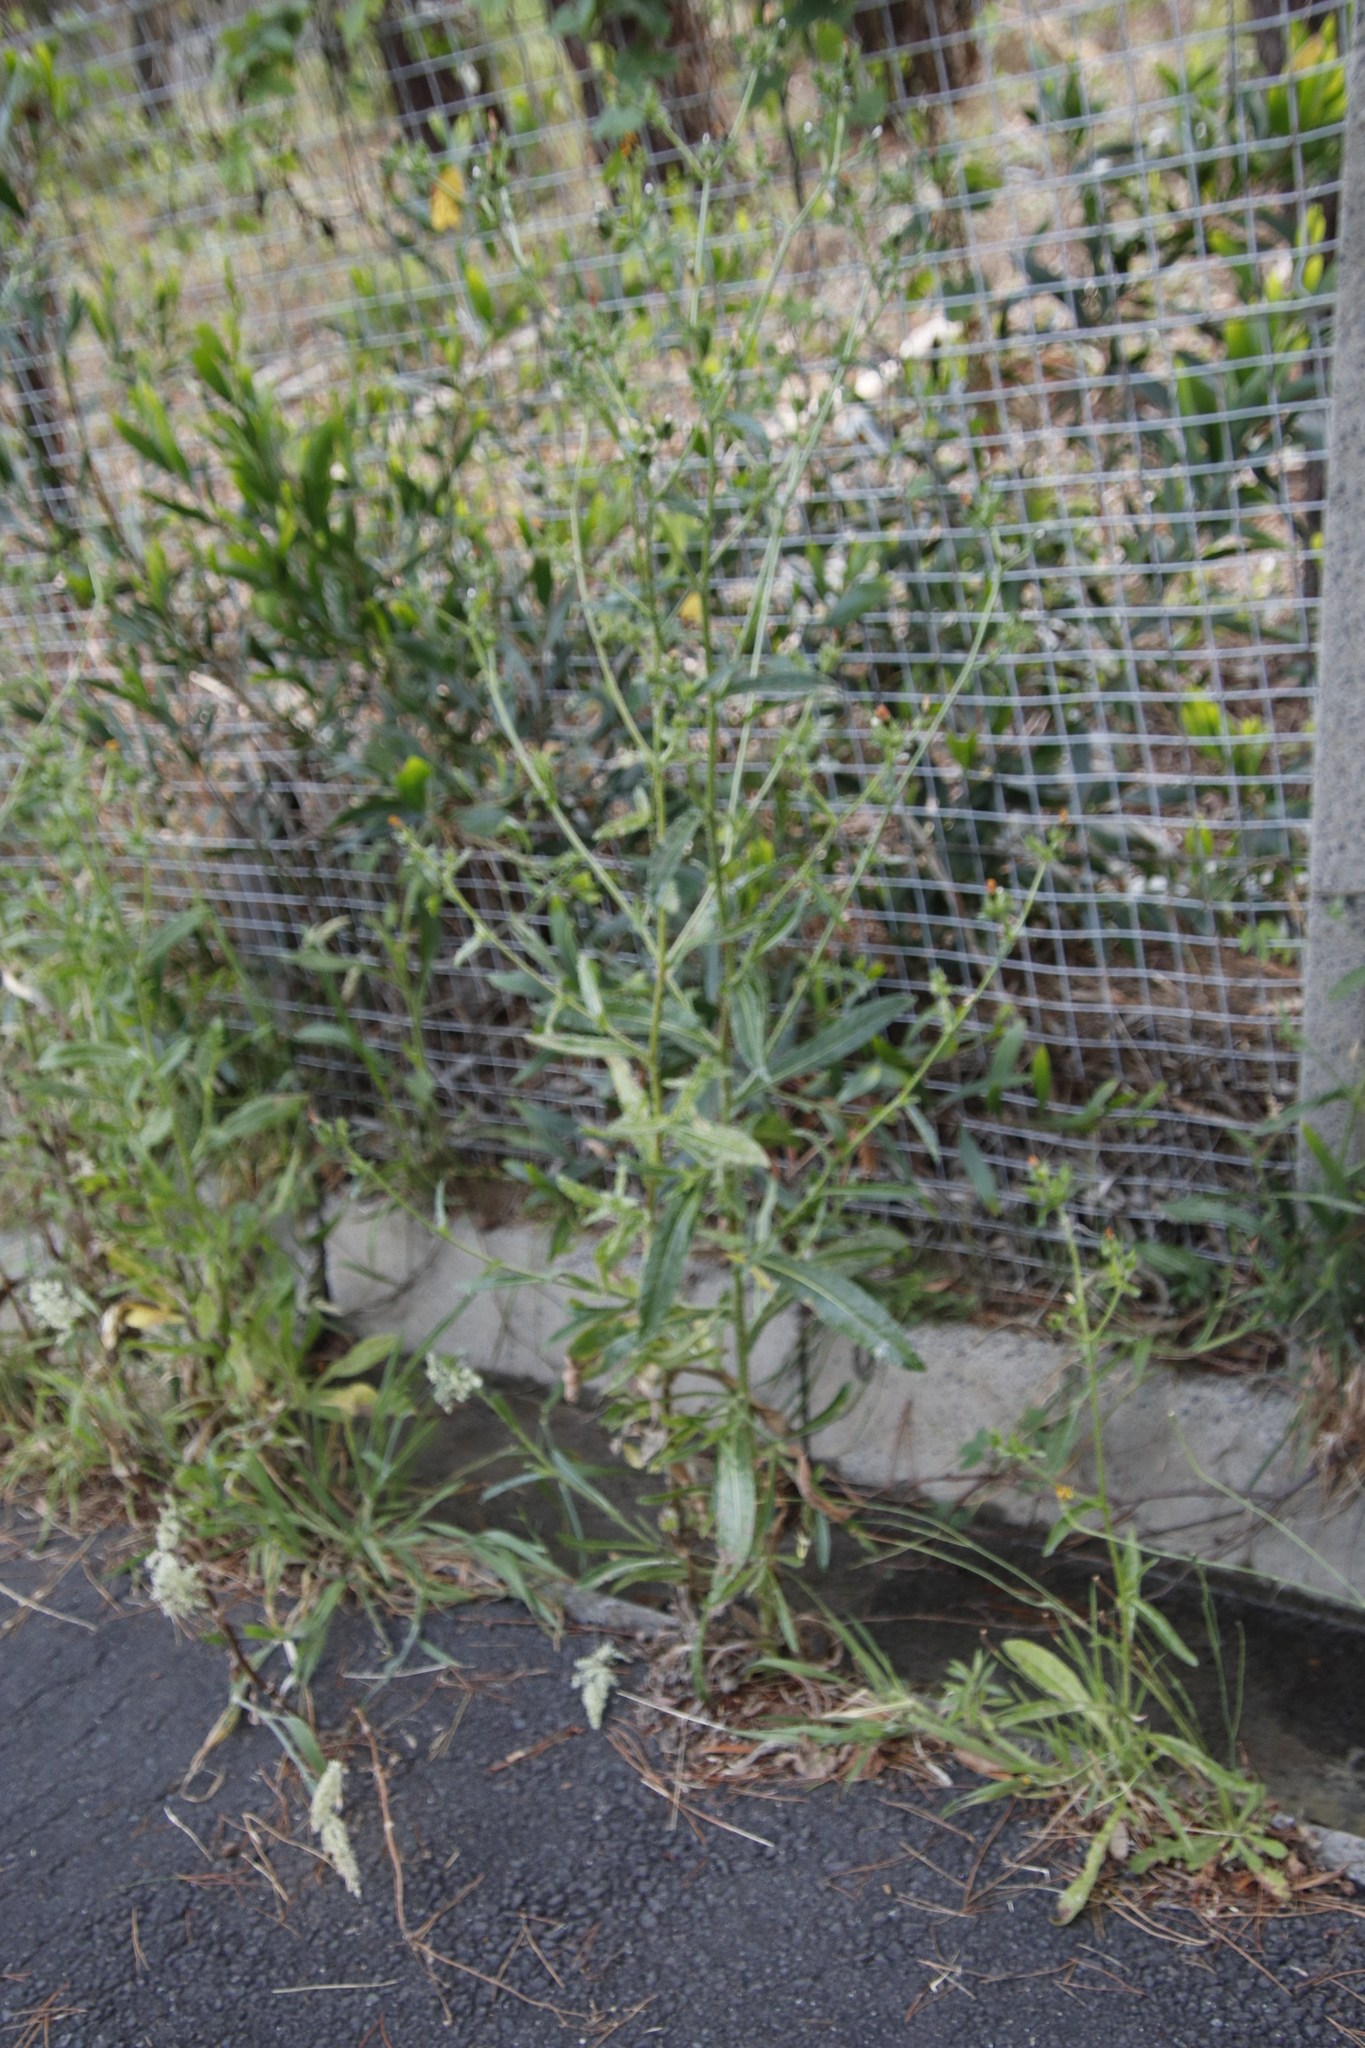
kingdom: Plantae
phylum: Tracheophyta
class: Magnoliopsida
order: Asterales
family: Asteraceae
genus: Helminthotheca
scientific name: Helminthotheca echioides
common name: Ox-tongue
